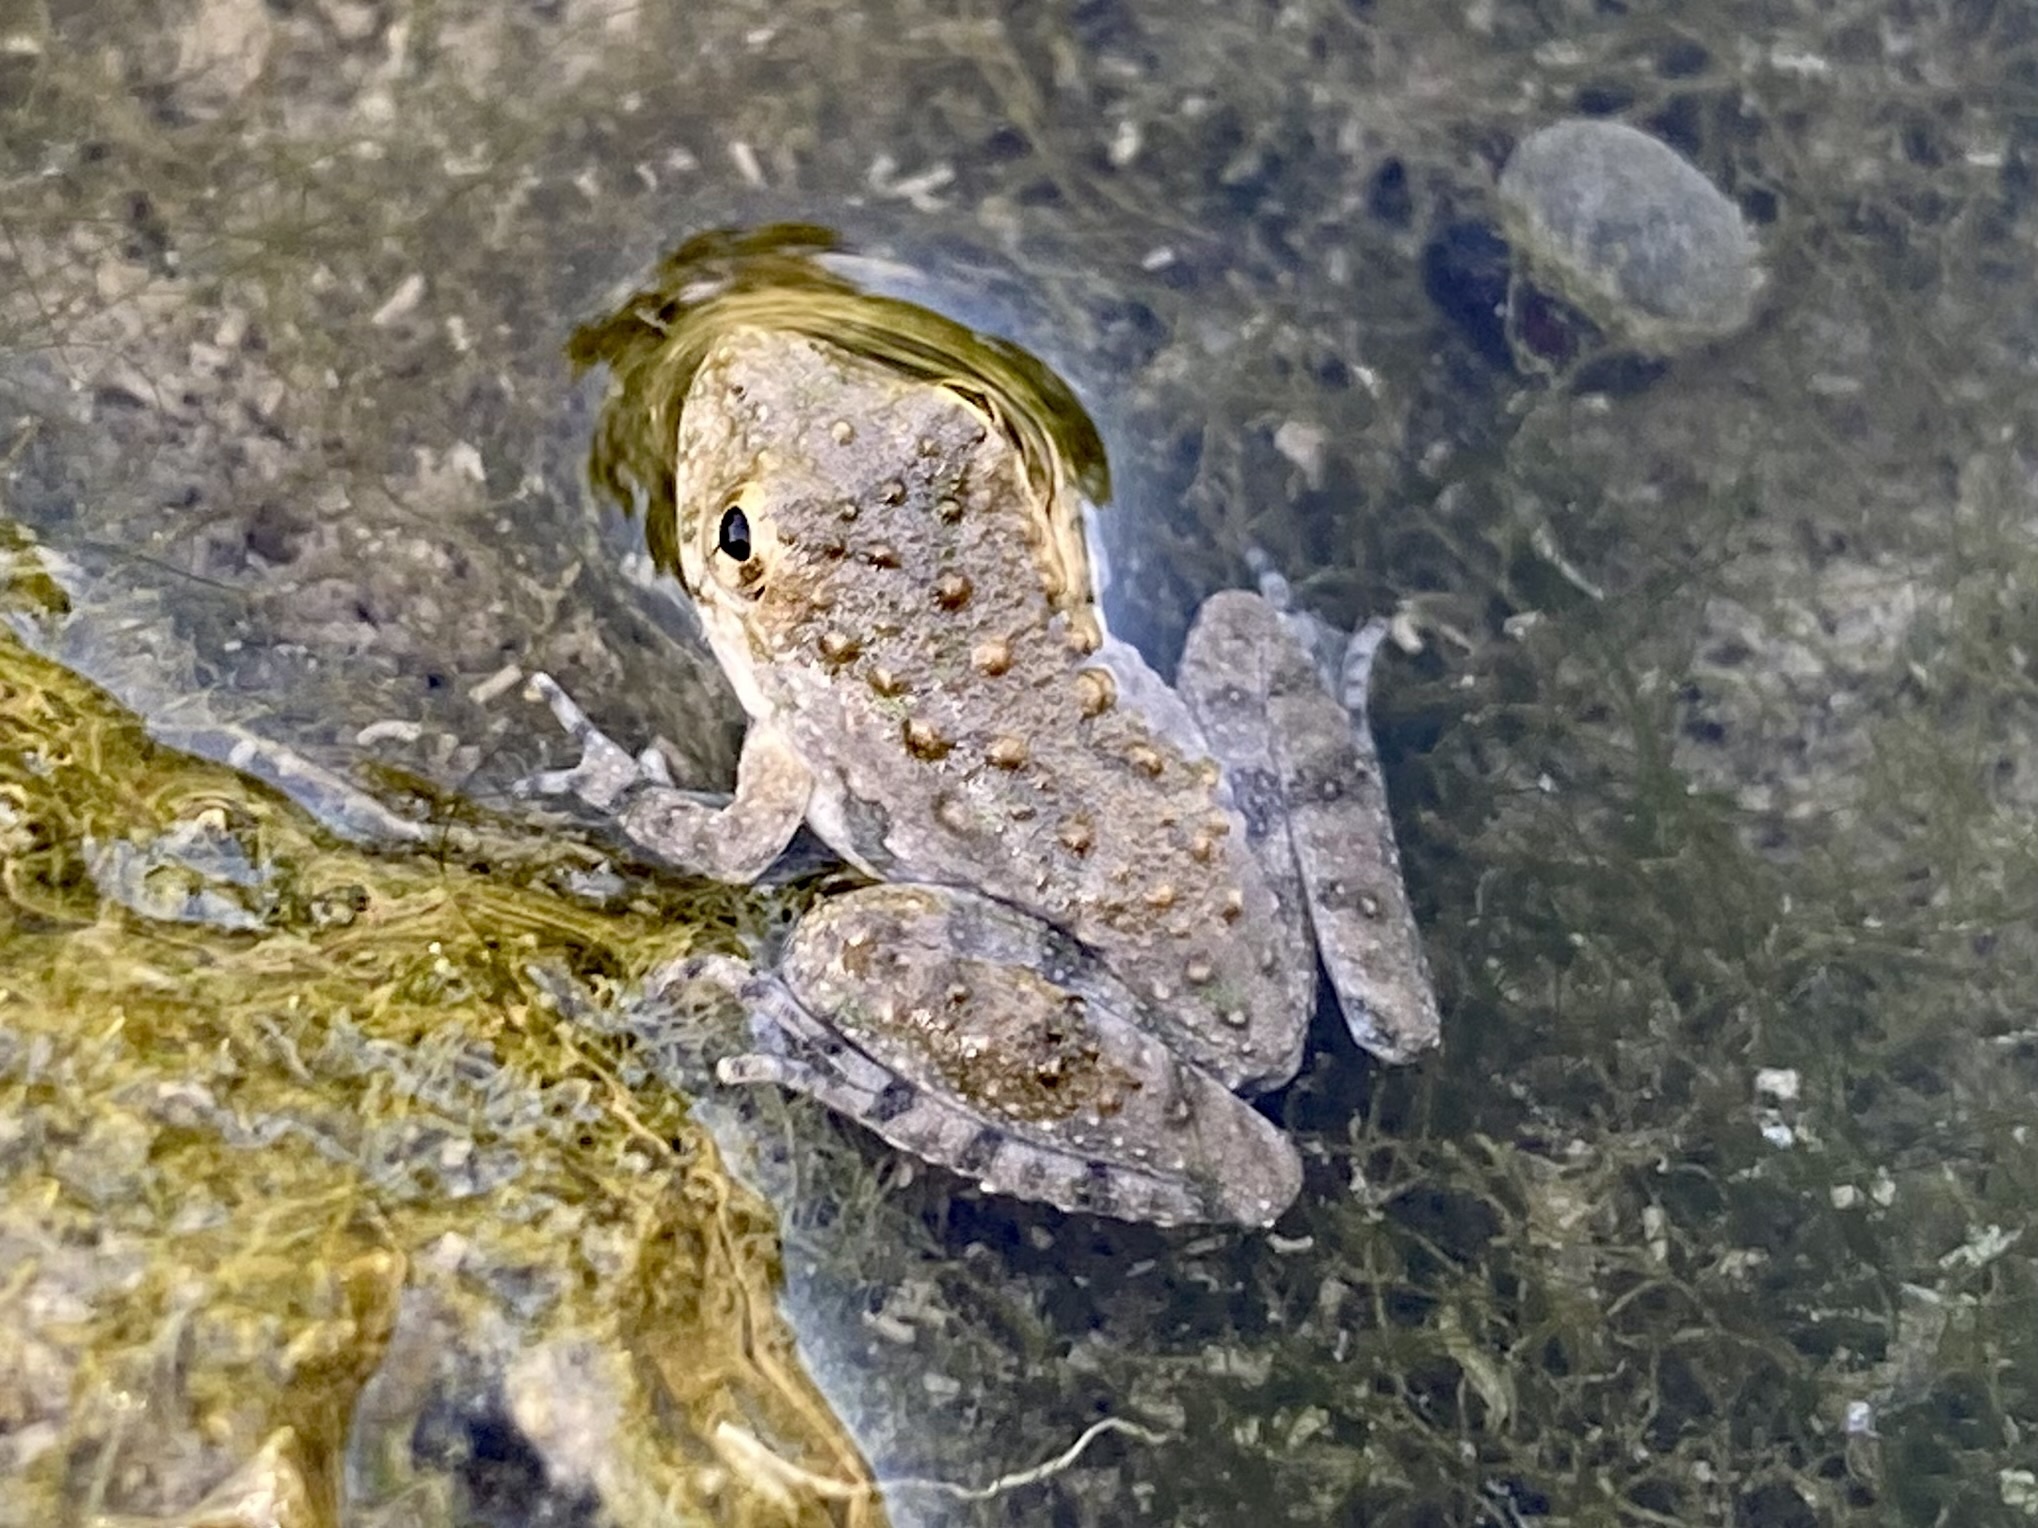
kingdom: Animalia
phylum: Chordata
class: Amphibia
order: Anura
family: Hylidae
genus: Acris
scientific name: Acris blanchardi
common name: Blanchard's cricket frog
